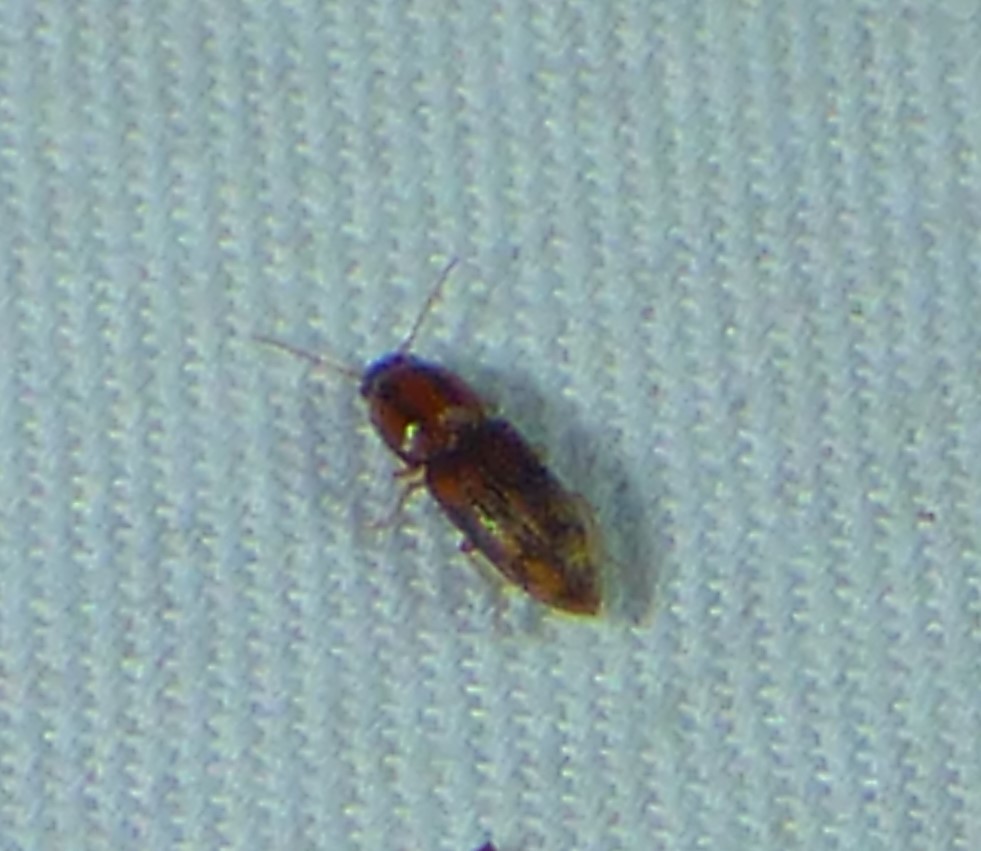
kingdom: Animalia
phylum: Arthropoda
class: Insecta
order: Coleoptera
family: Elateridae
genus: Monocrepidius
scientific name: Monocrepidius bellus
